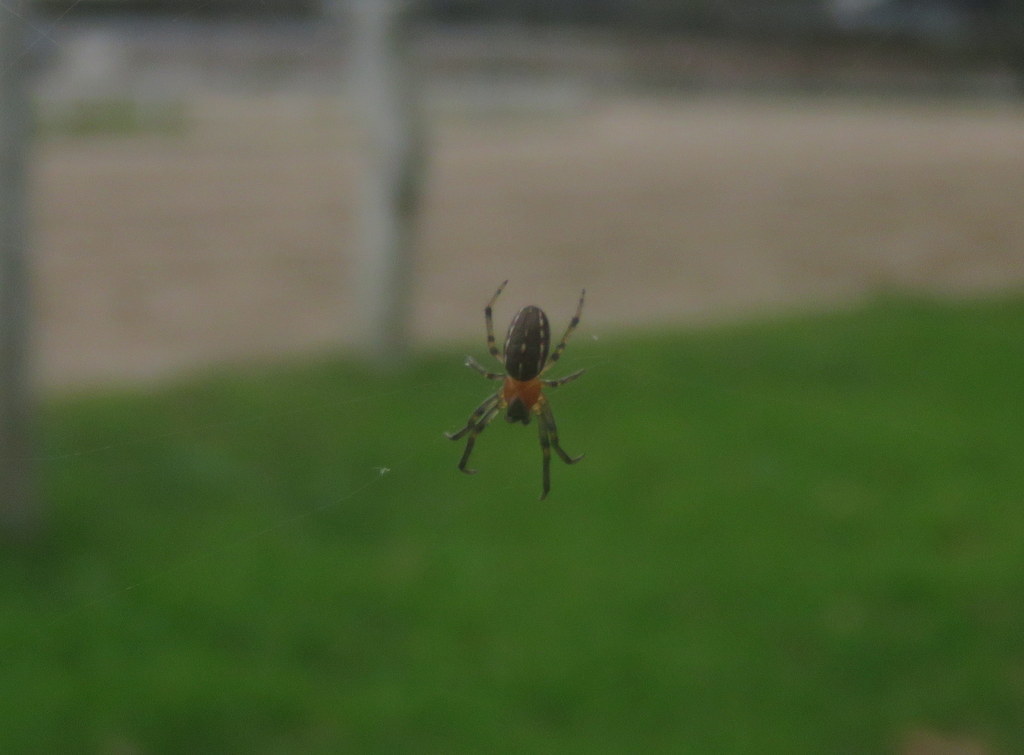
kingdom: Animalia
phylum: Arthropoda
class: Arachnida
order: Araneae
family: Araneidae
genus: Alpaida
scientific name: Alpaida veniliae
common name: Orb weavers
